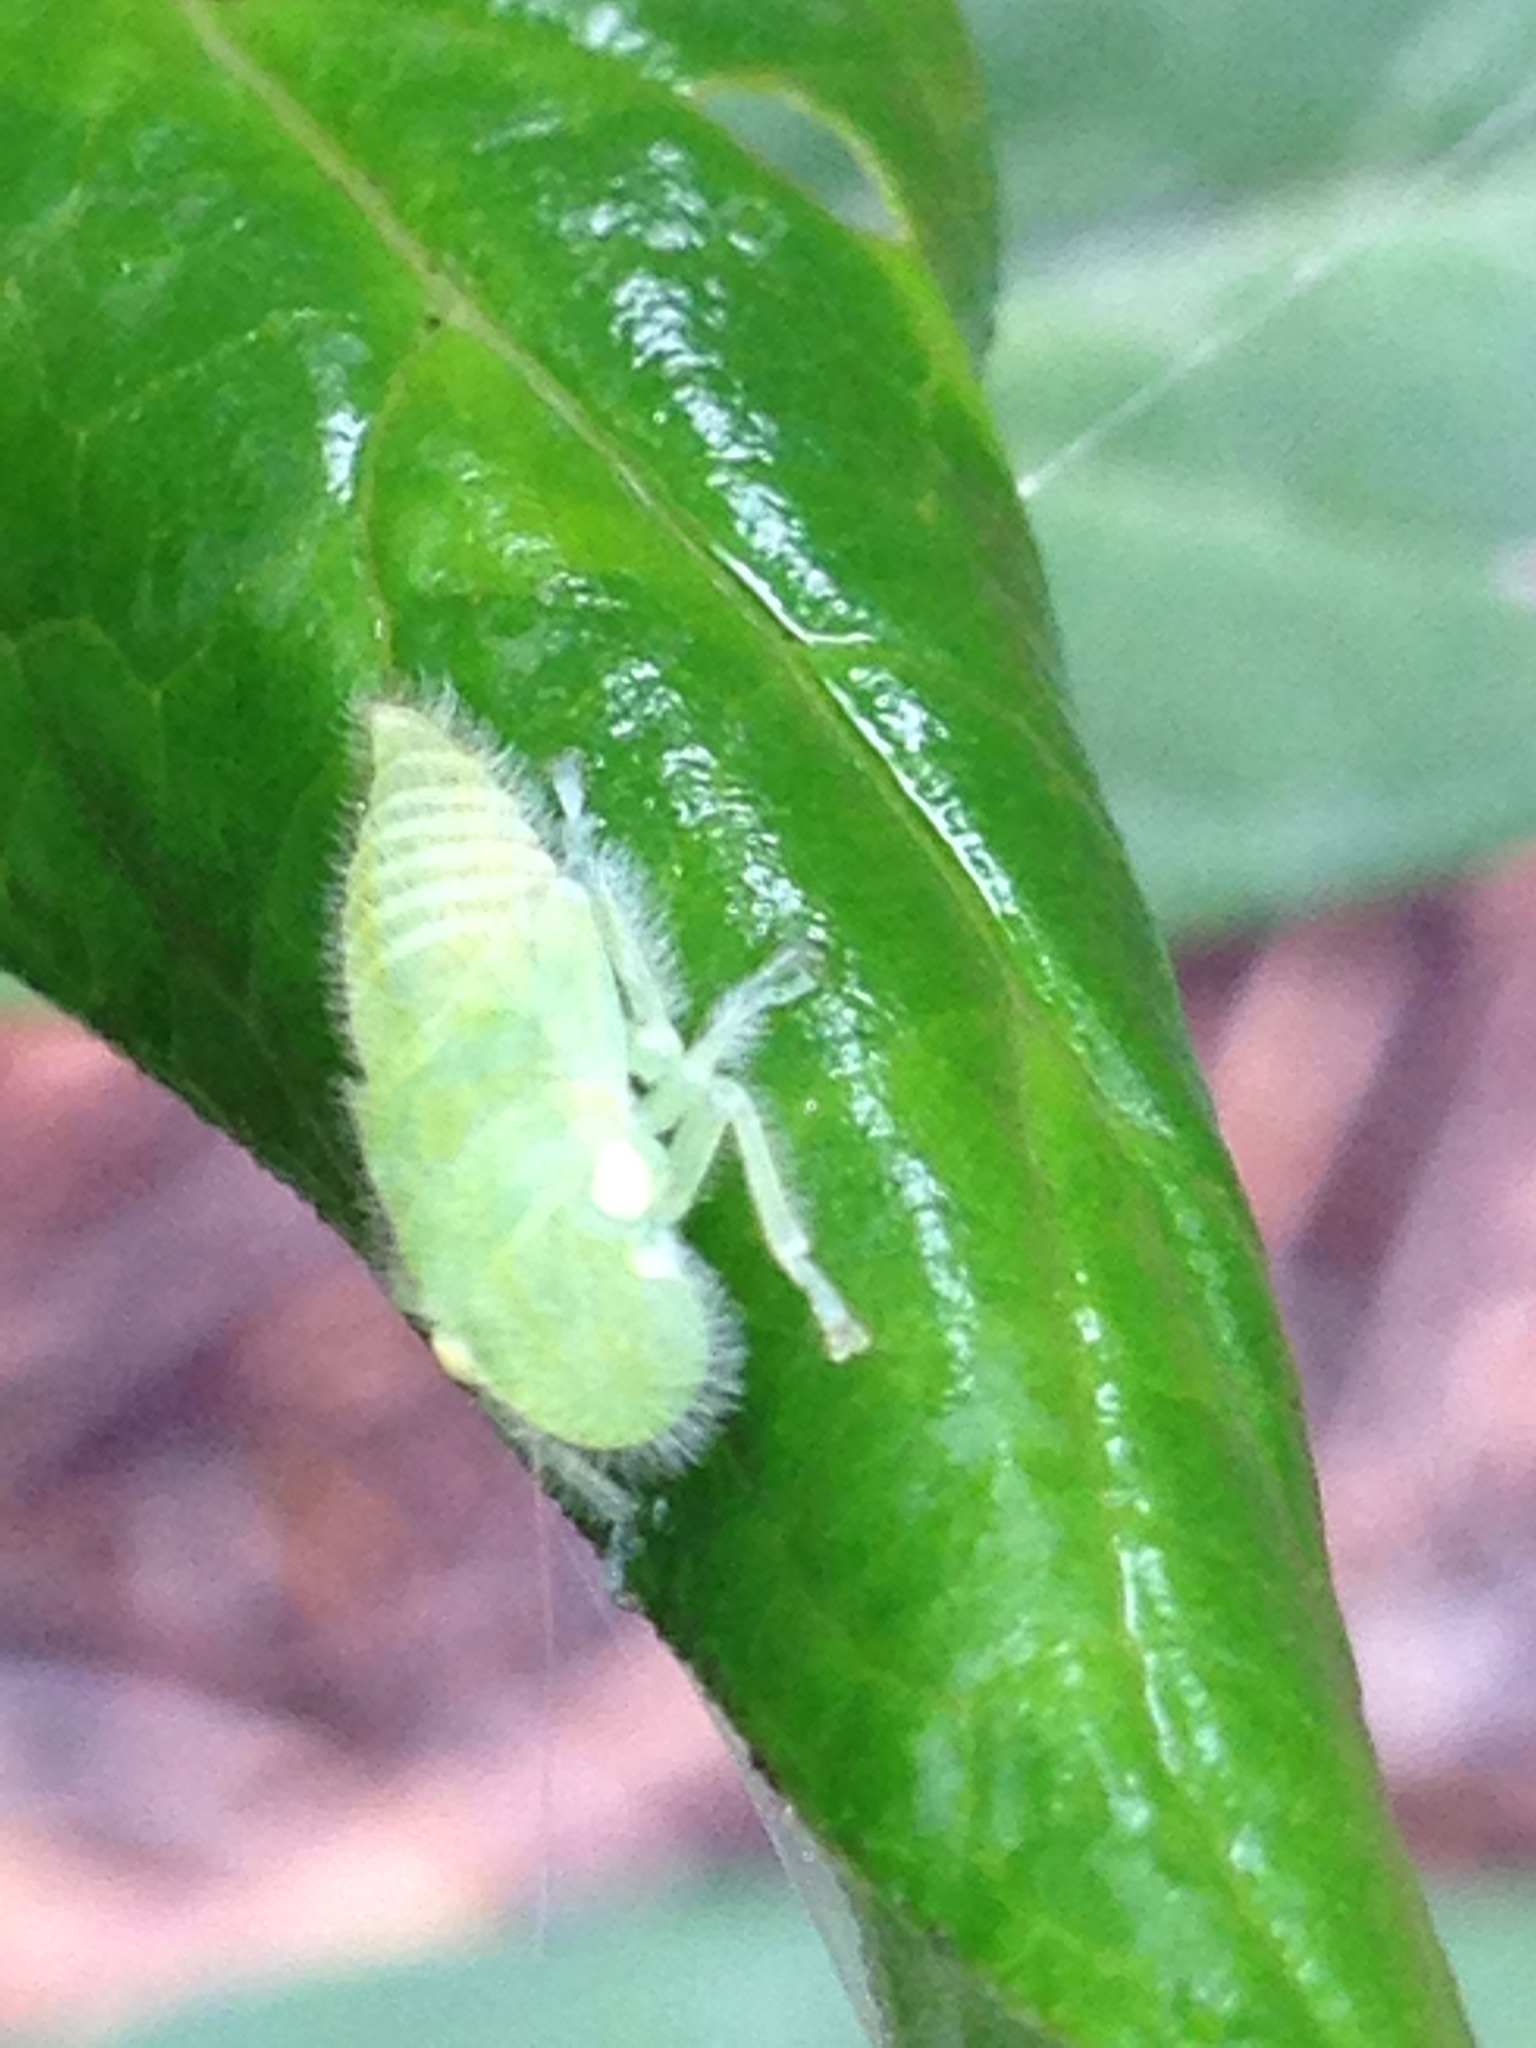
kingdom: Animalia
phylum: Arthropoda
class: Insecta
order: Hemiptera
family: Cicadellidae
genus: Paraulacizes
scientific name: Paraulacizes irrorata
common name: Speckled sharpshooter
